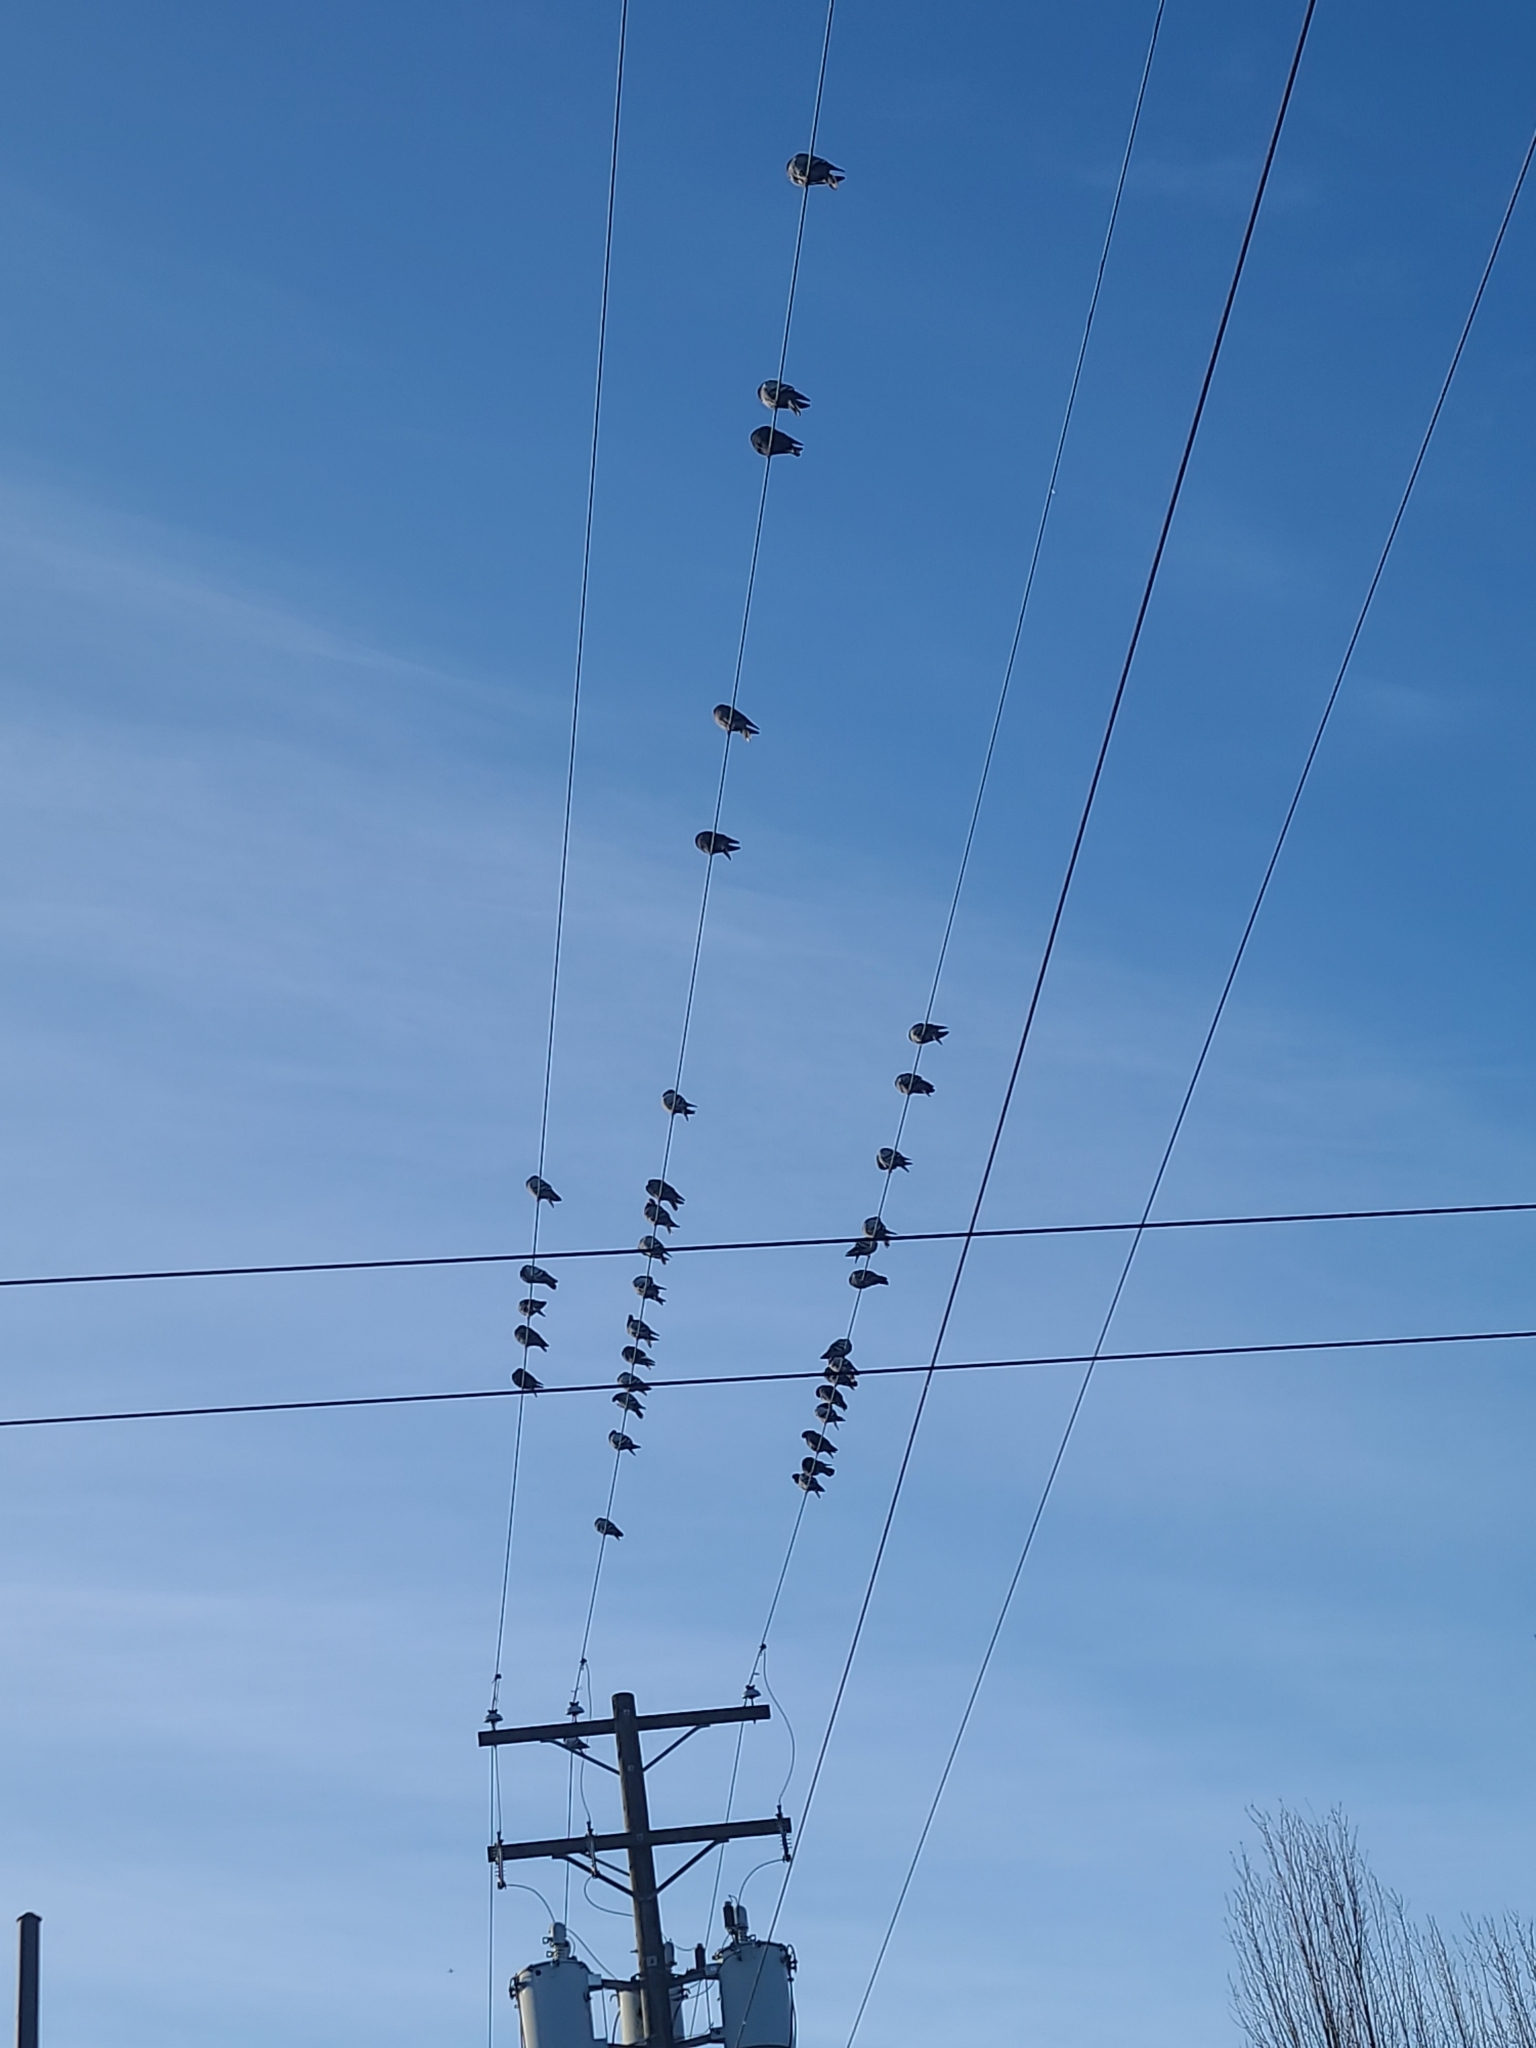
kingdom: Animalia
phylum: Chordata
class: Aves
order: Columbiformes
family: Columbidae
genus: Columba
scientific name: Columba livia
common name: Rock pigeon
